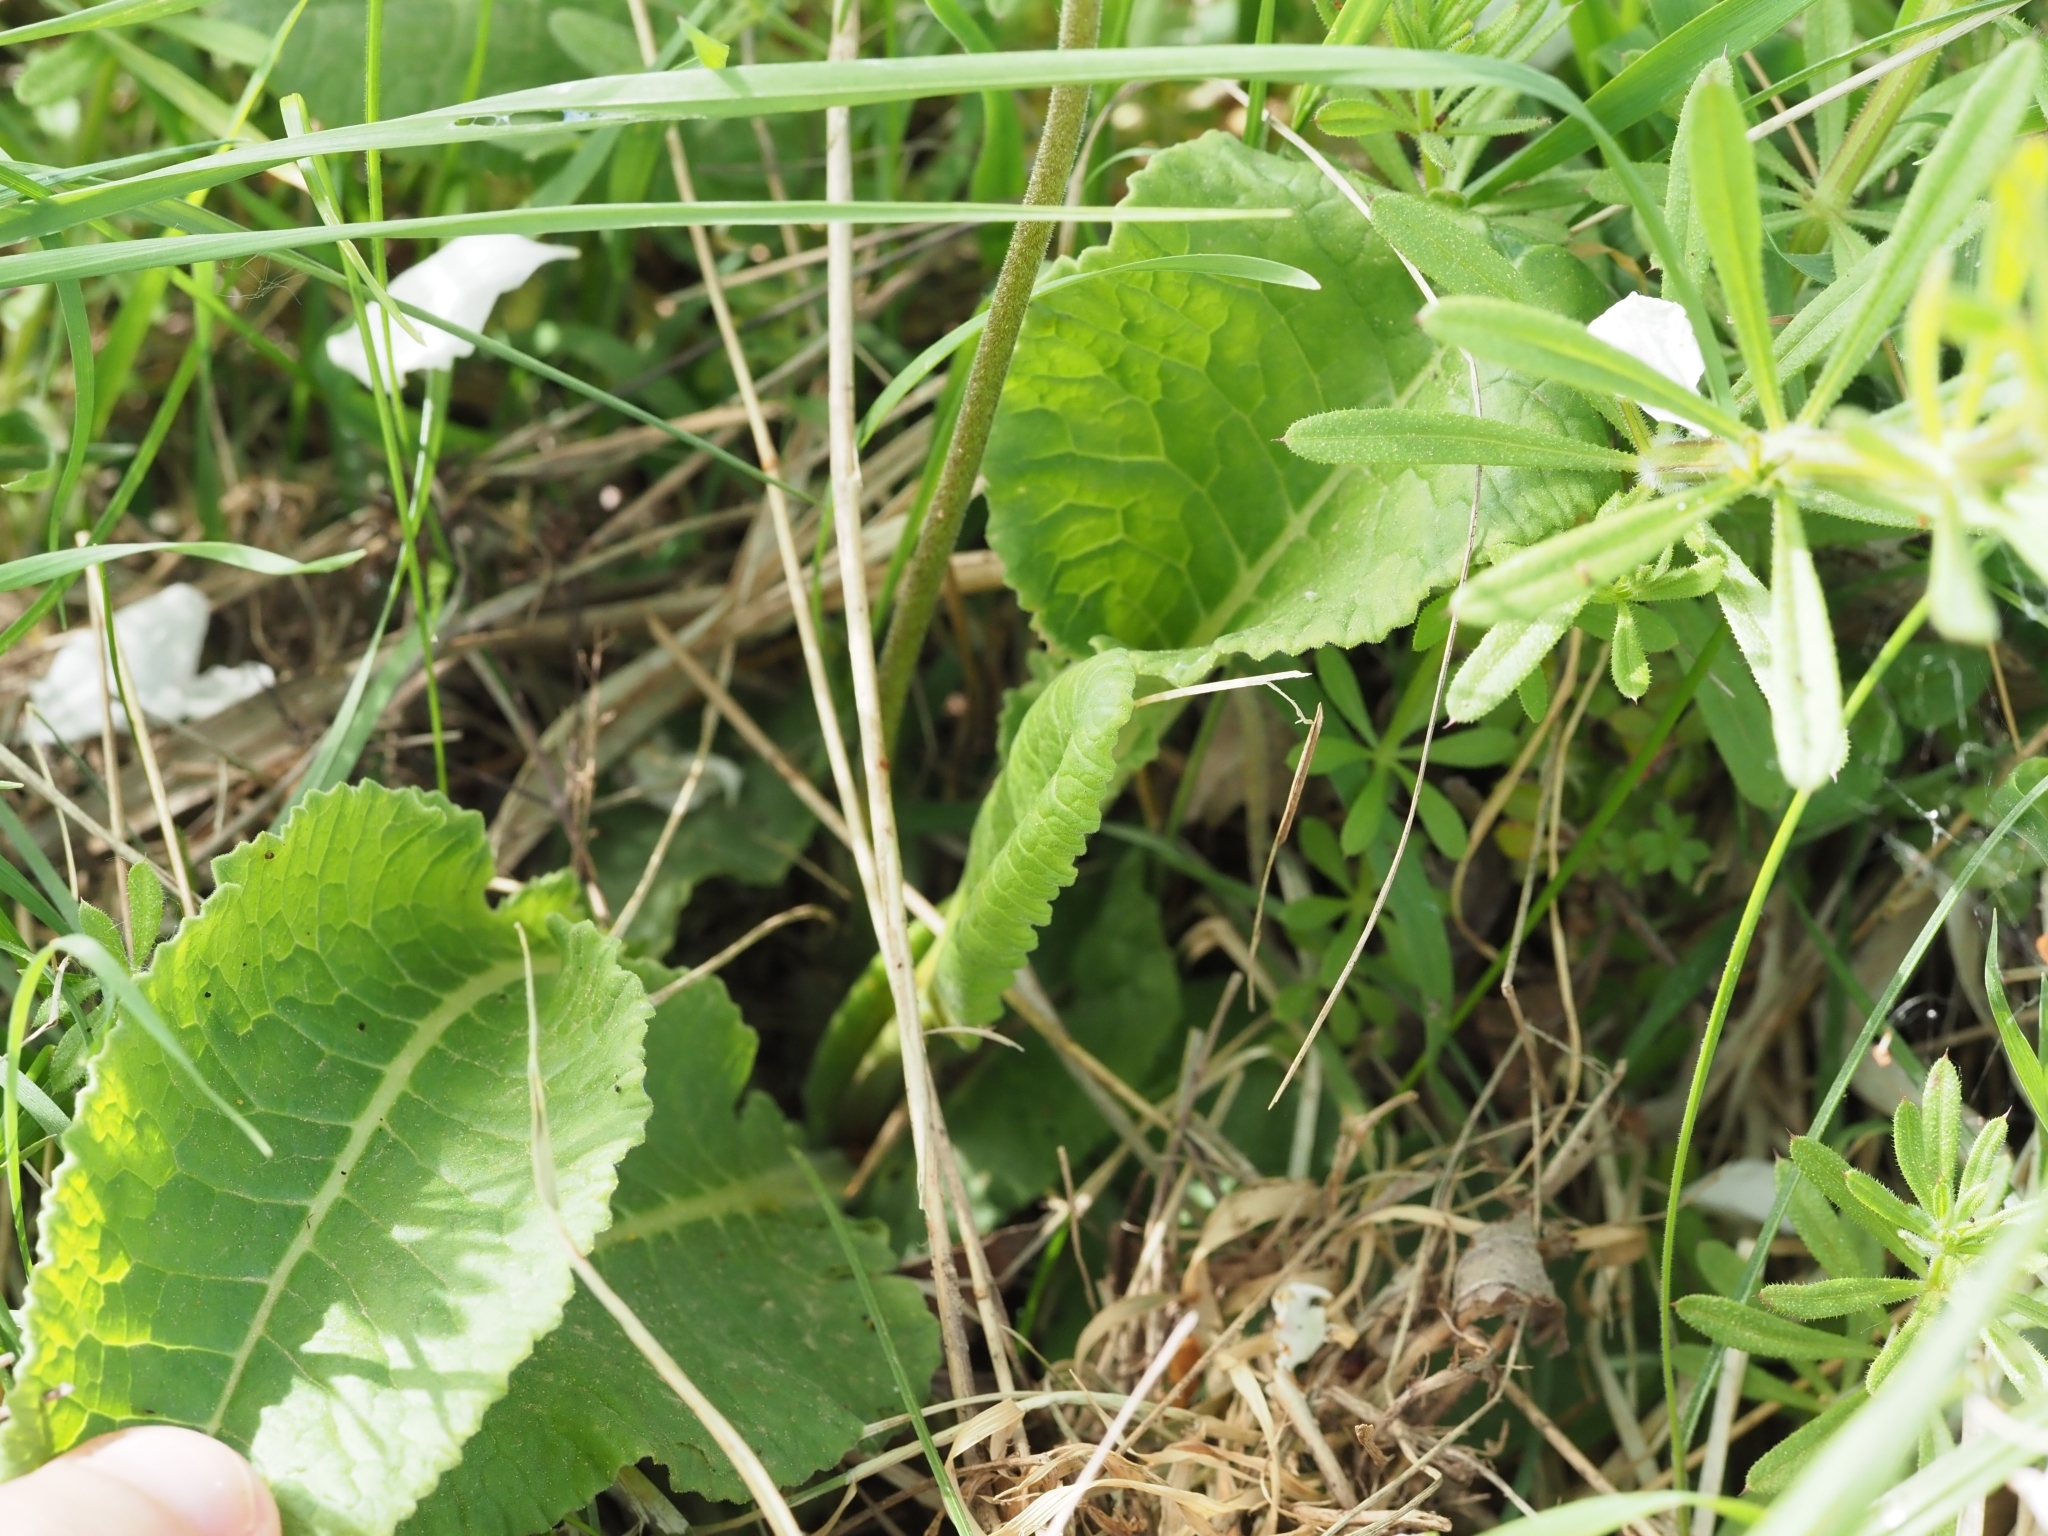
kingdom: Plantae
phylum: Tracheophyta
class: Magnoliopsida
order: Ericales
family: Primulaceae
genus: Primula
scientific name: Primula veris
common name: Cowslip
